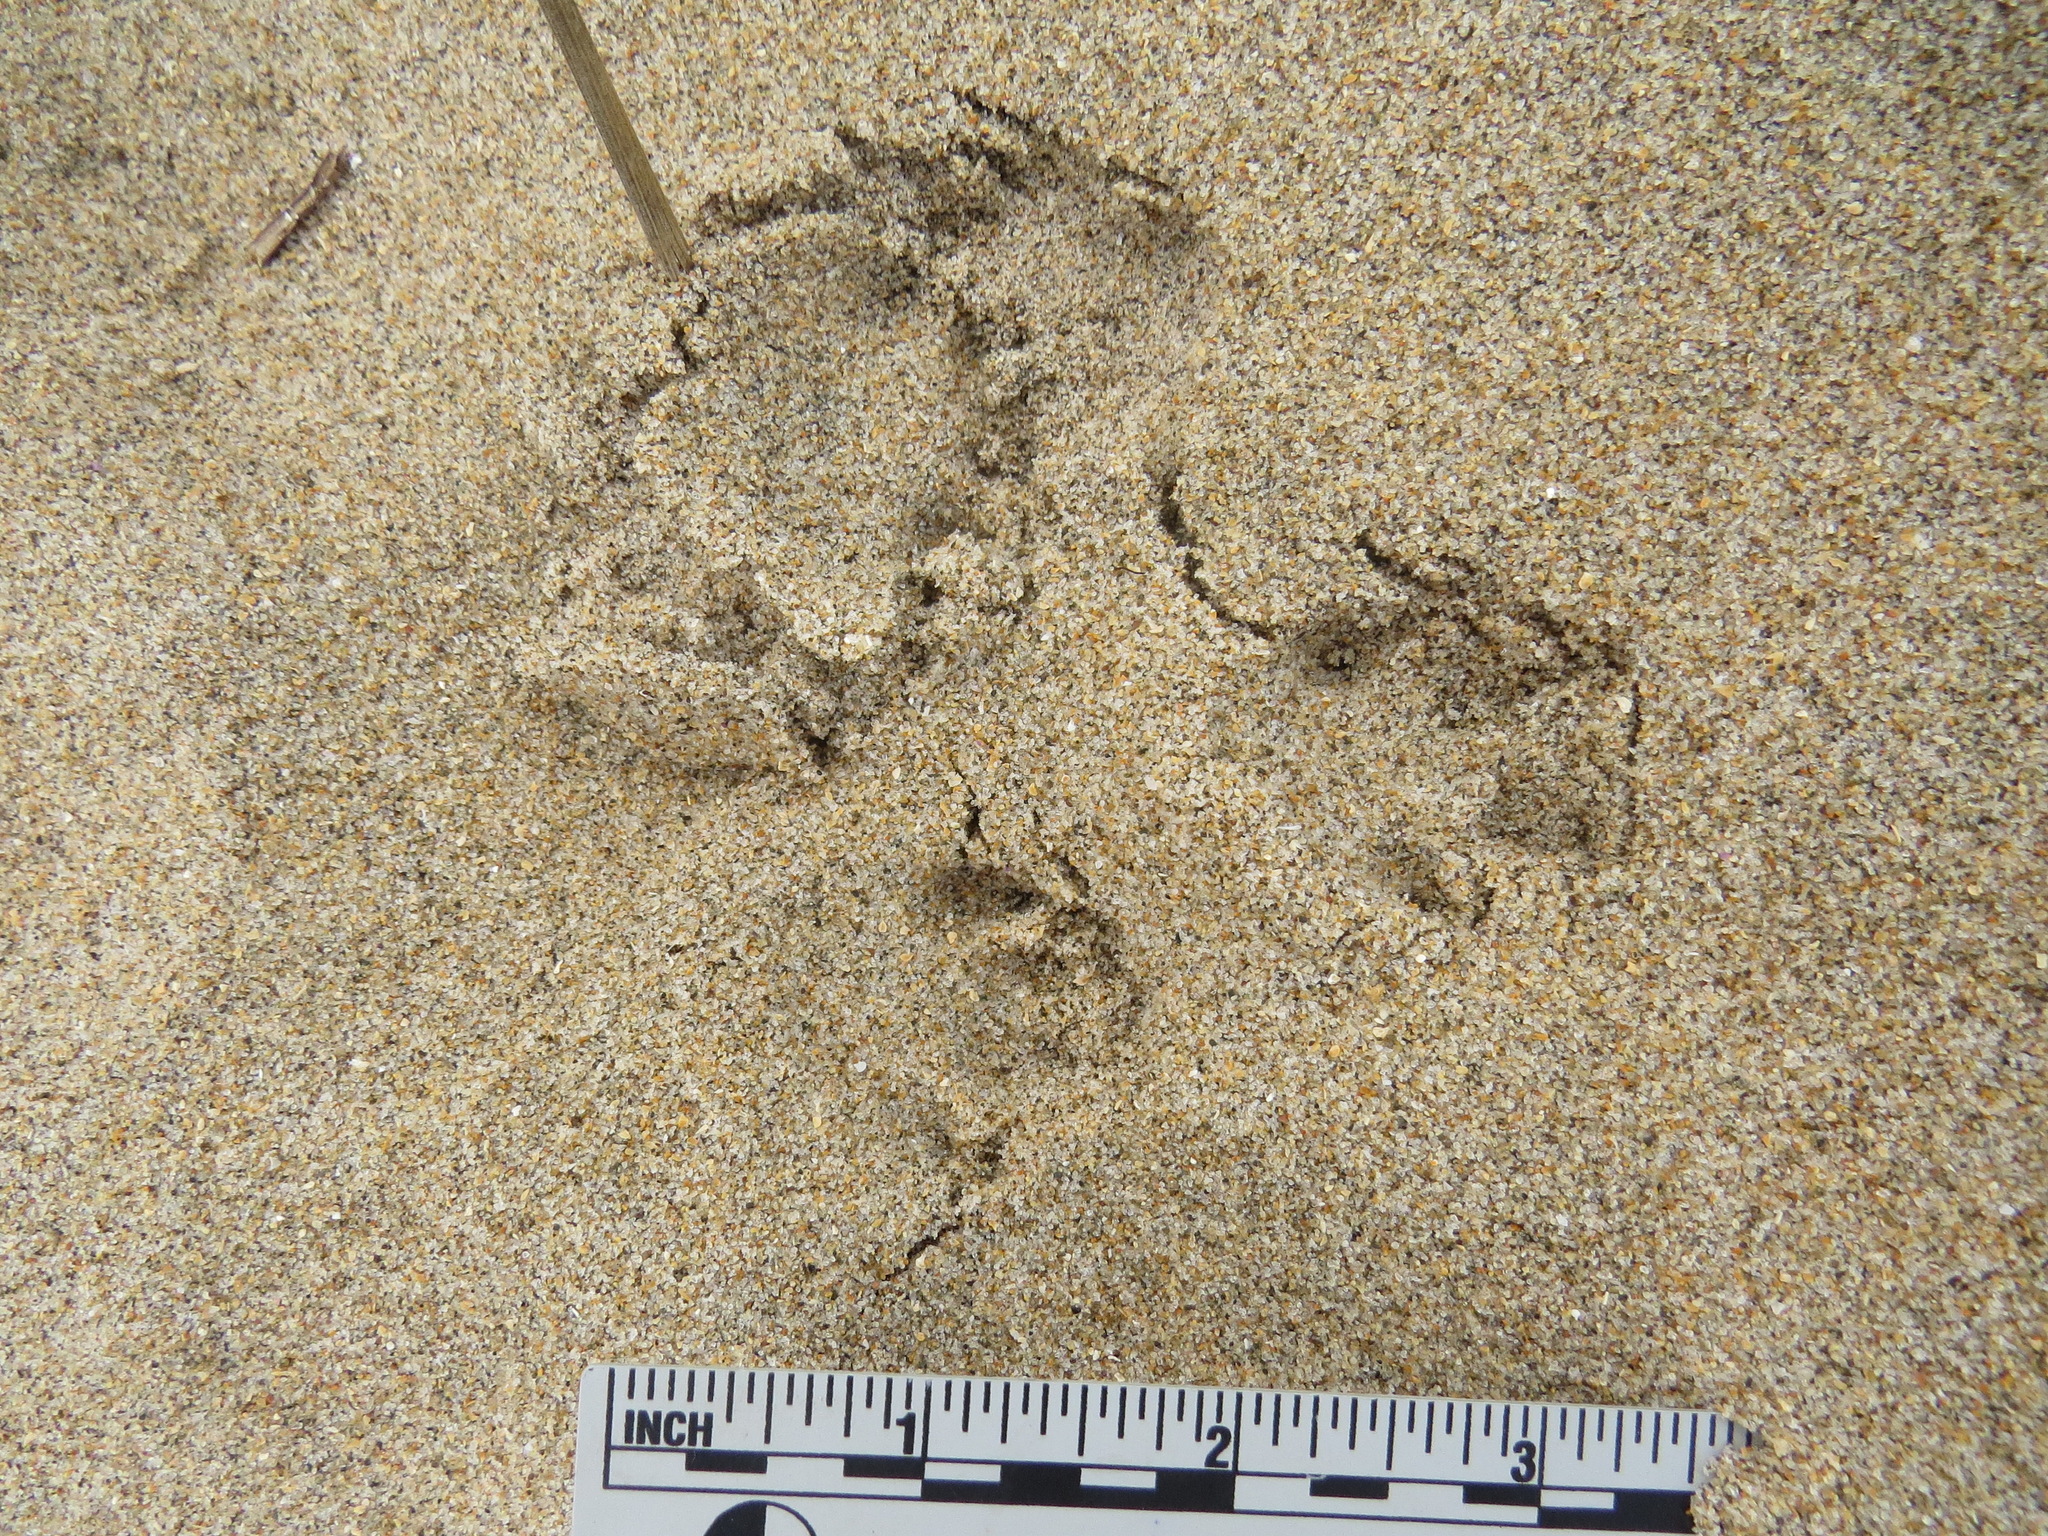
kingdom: Animalia
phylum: Chordata
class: Mammalia
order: Lagomorpha
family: Leporidae
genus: Sylvilagus
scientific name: Sylvilagus bachmani
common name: Brush rabbit
